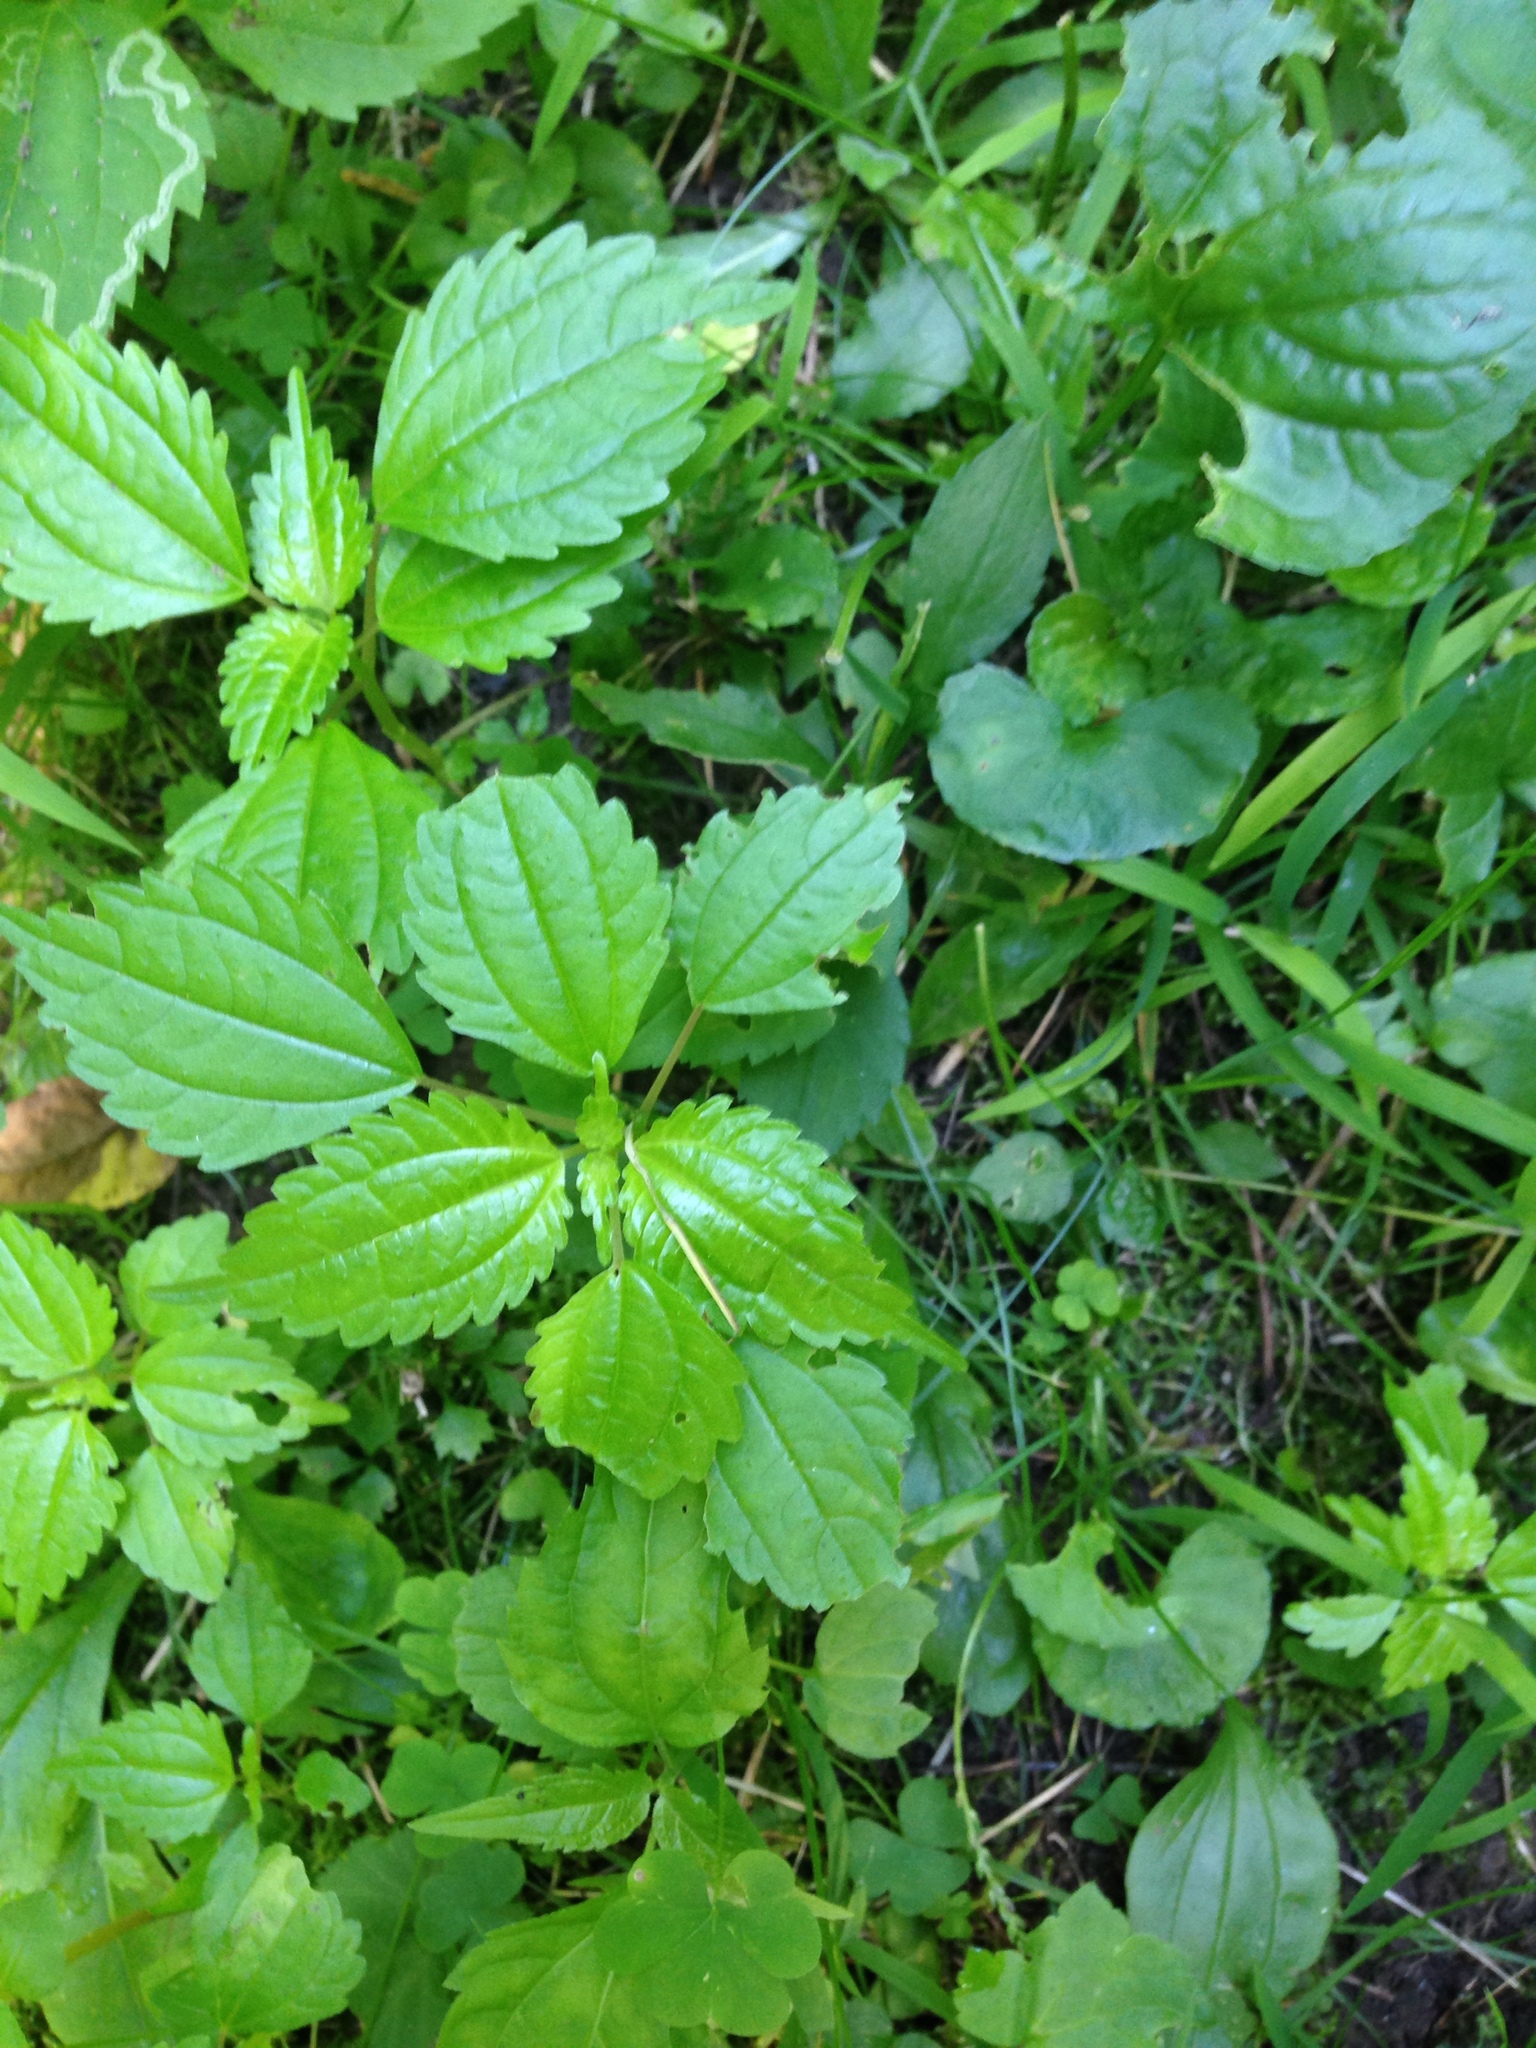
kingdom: Plantae
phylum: Tracheophyta
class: Magnoliopsida
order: Rosales
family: Urticaceae
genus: Pilea
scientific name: Pilea pumila
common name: Clearweed
